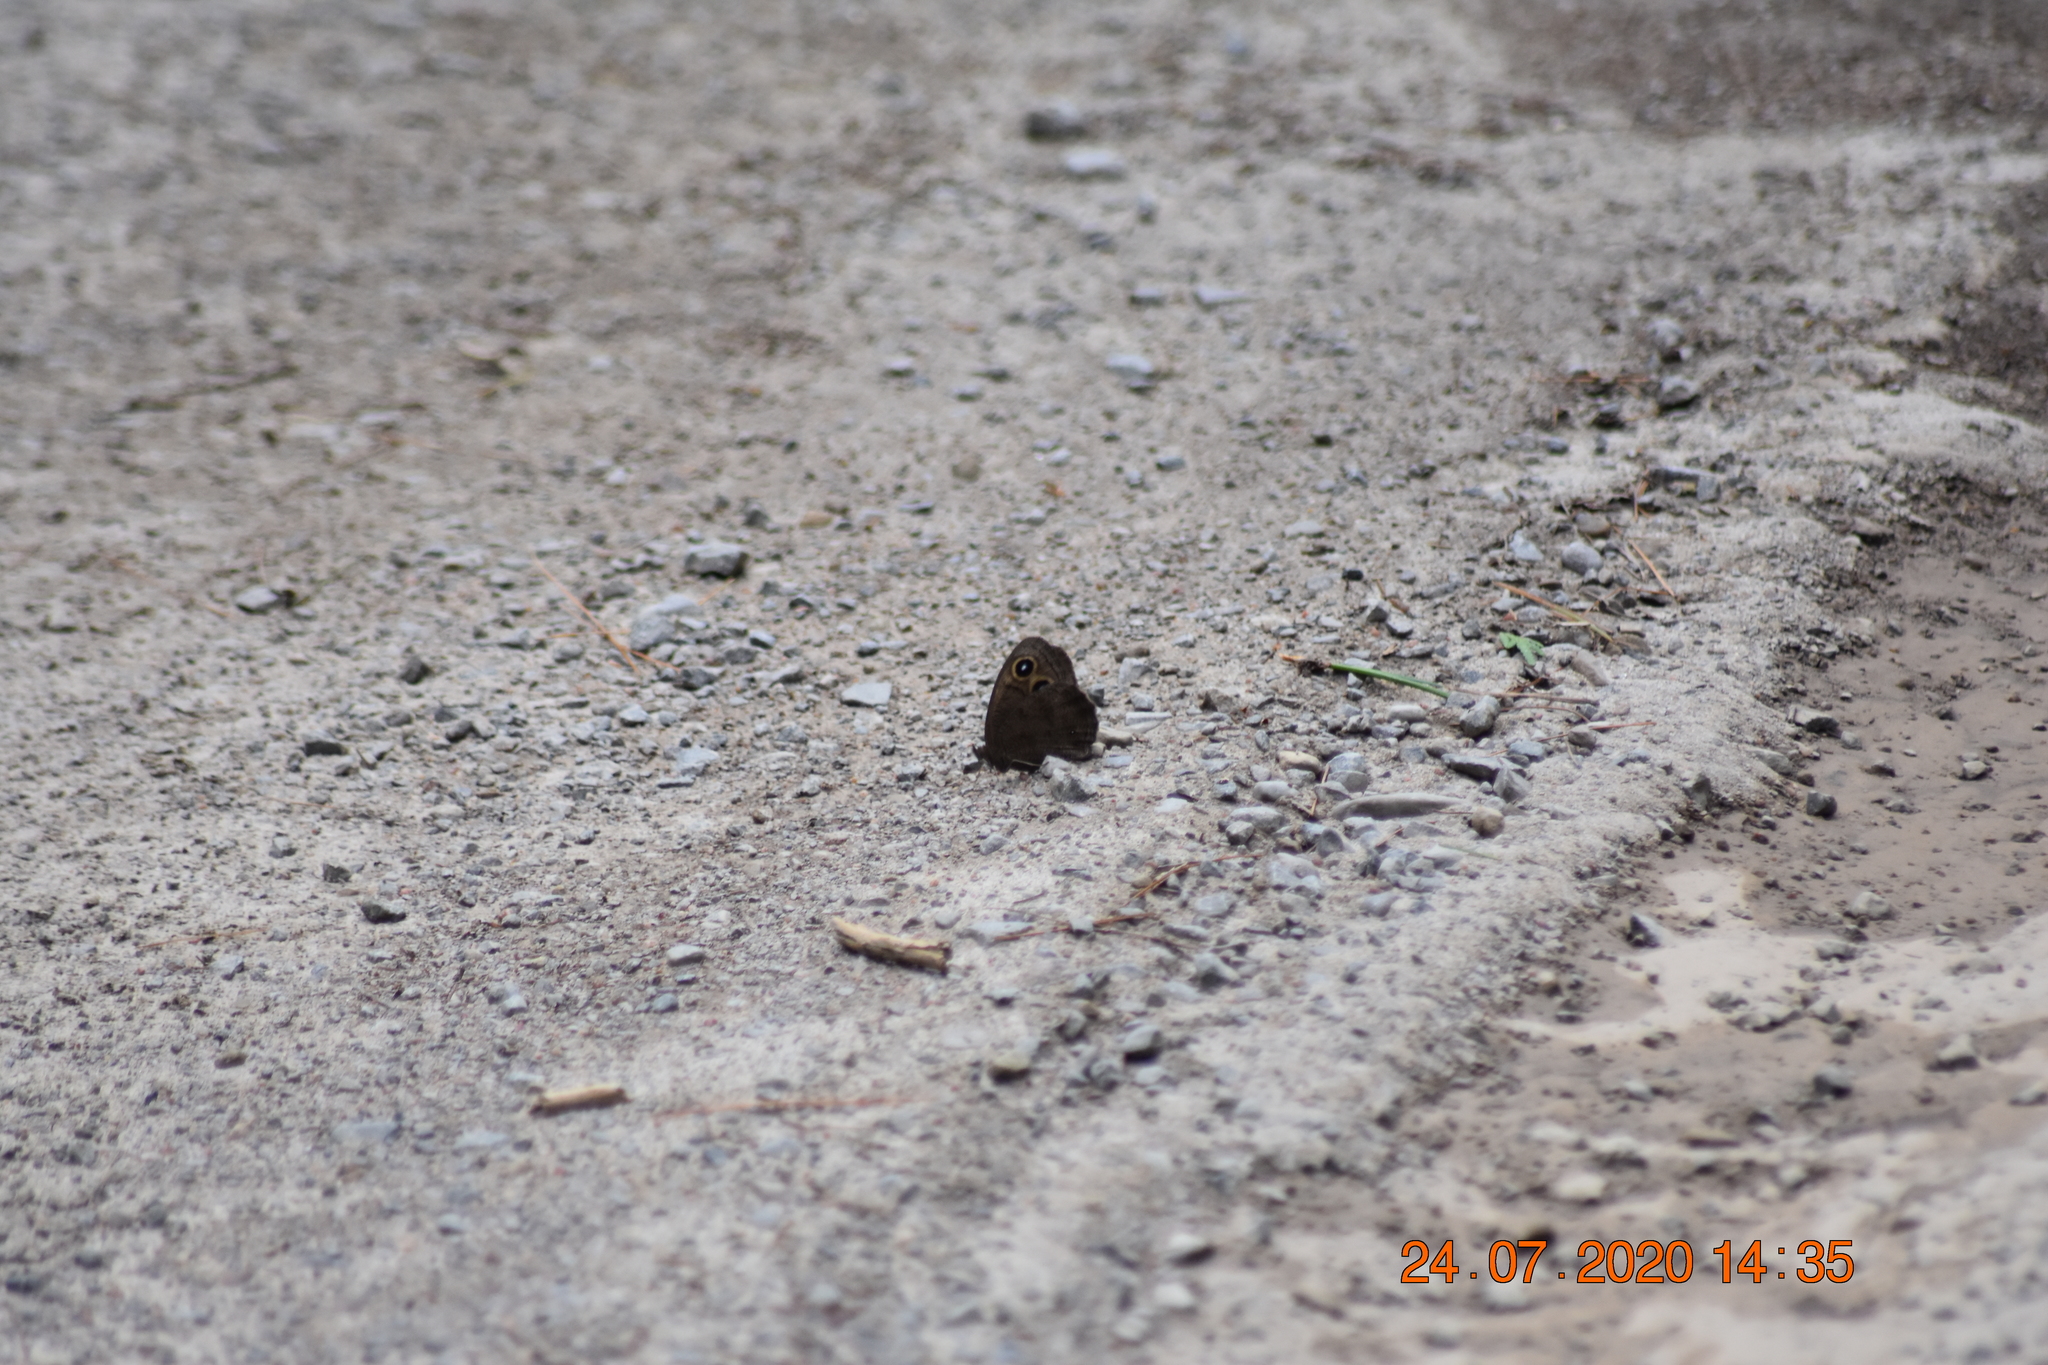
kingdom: Animalia
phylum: Arthropoda
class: Insecta
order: Lepidoptera
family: Nymphalidae
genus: Cercyonis
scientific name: Cercyonis pegala
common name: Common wood-nymph
